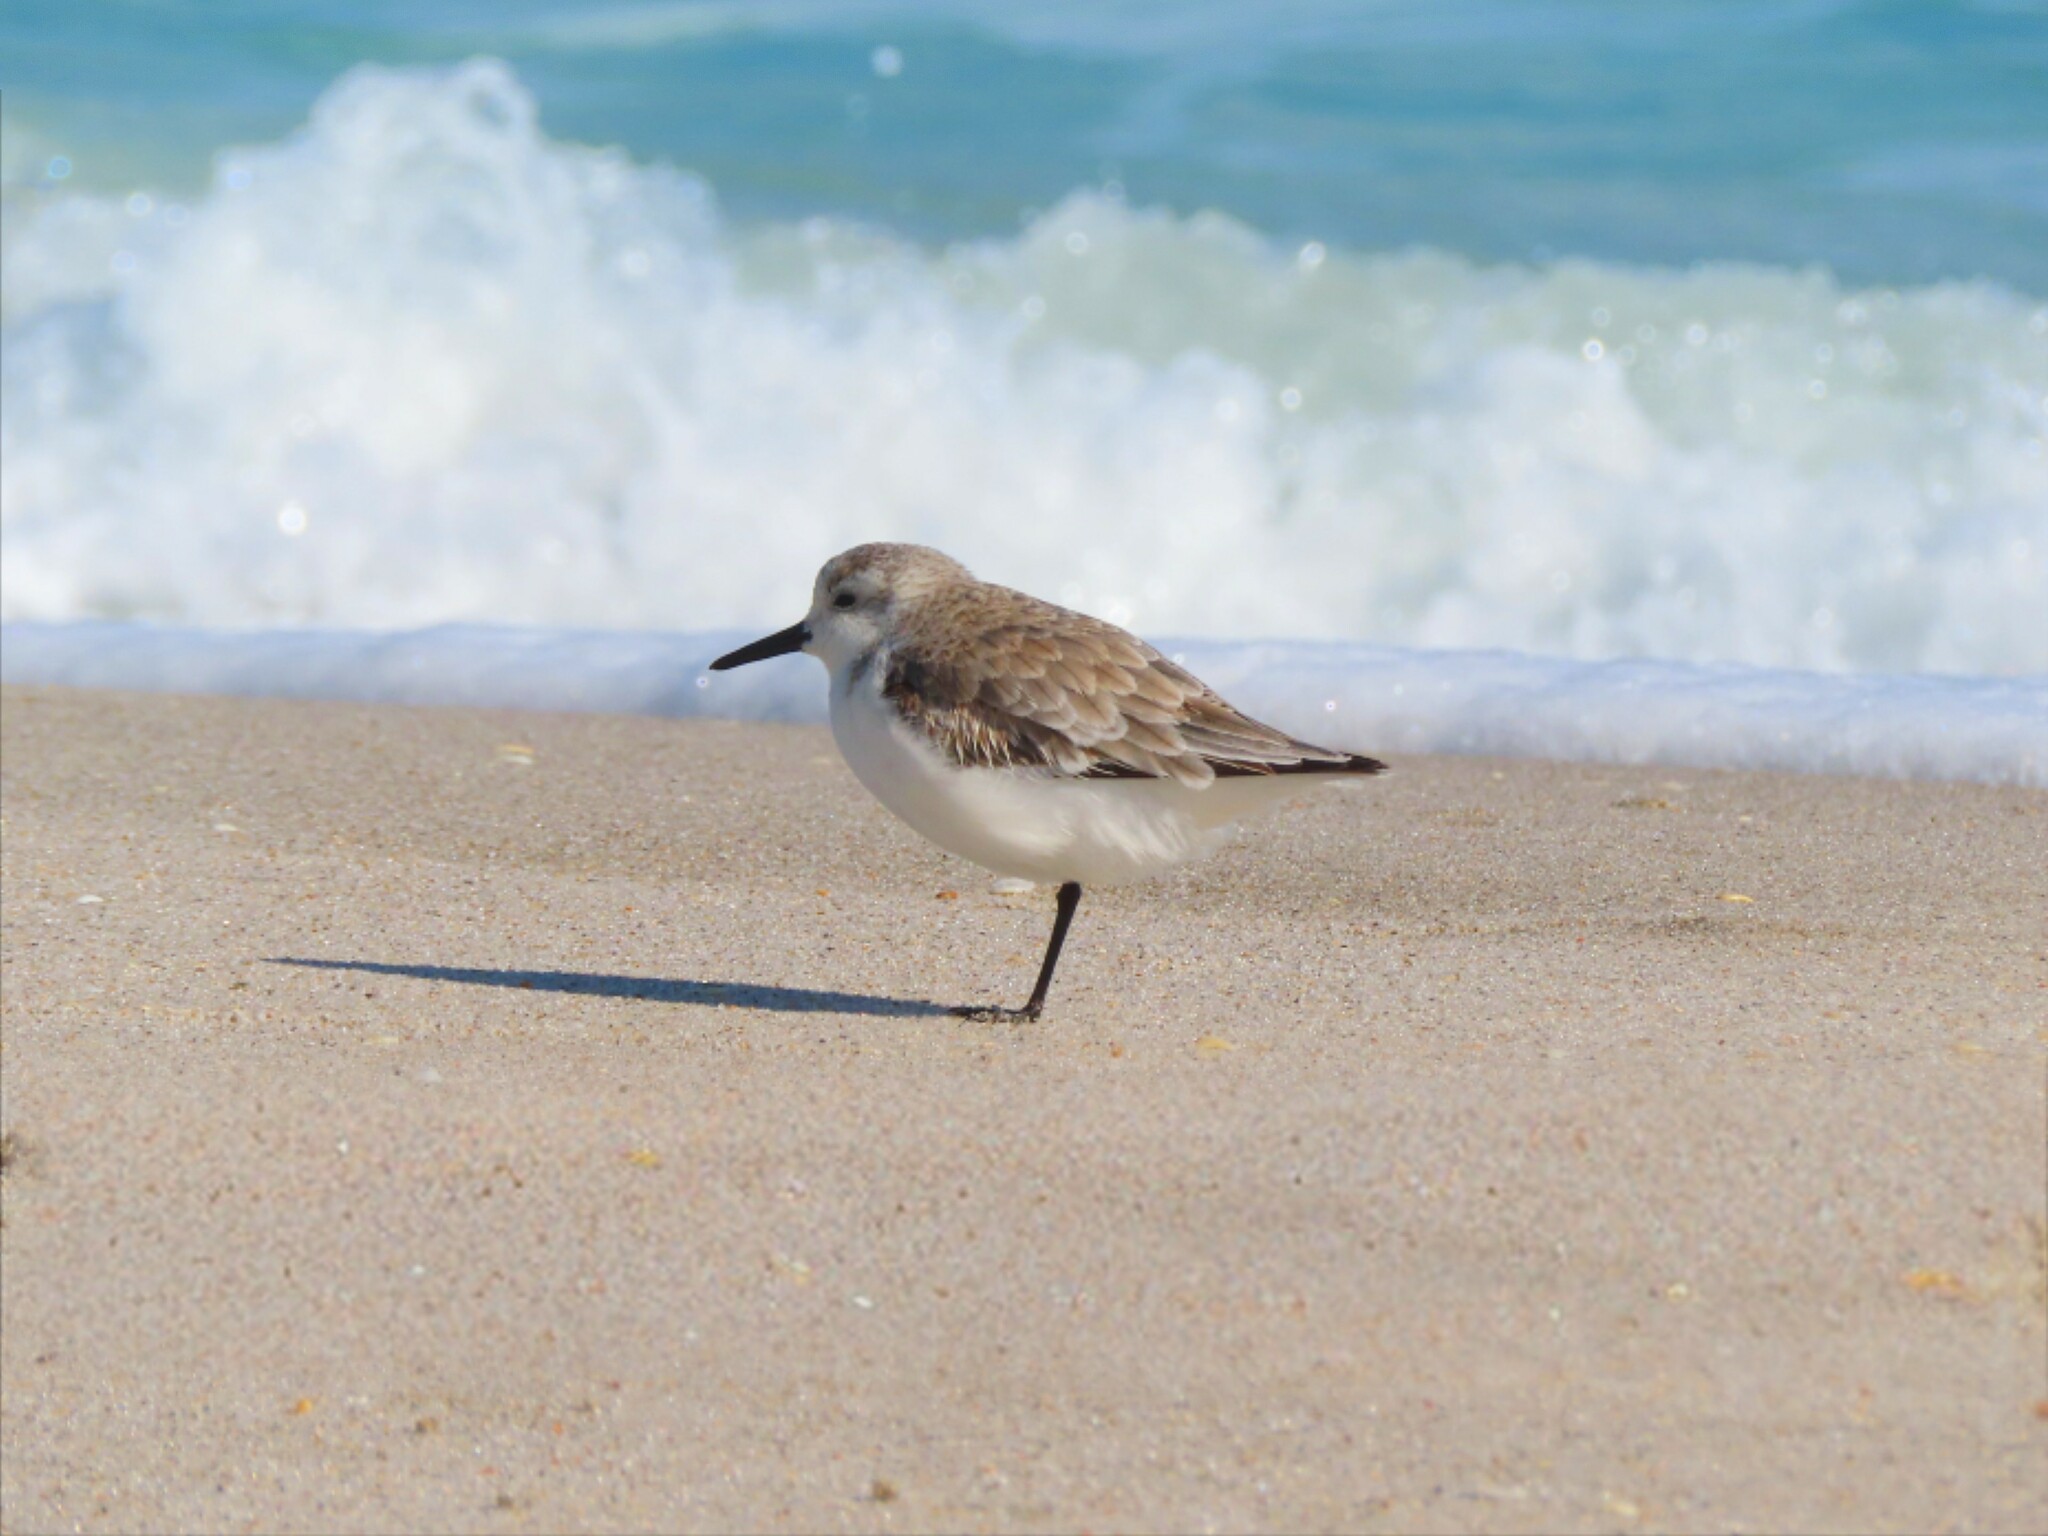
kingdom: Animalia
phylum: Chordata
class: Aves
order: Charadriiformes
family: Scolopacidae
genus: Calidris
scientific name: Calidris alba
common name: Sanderling
